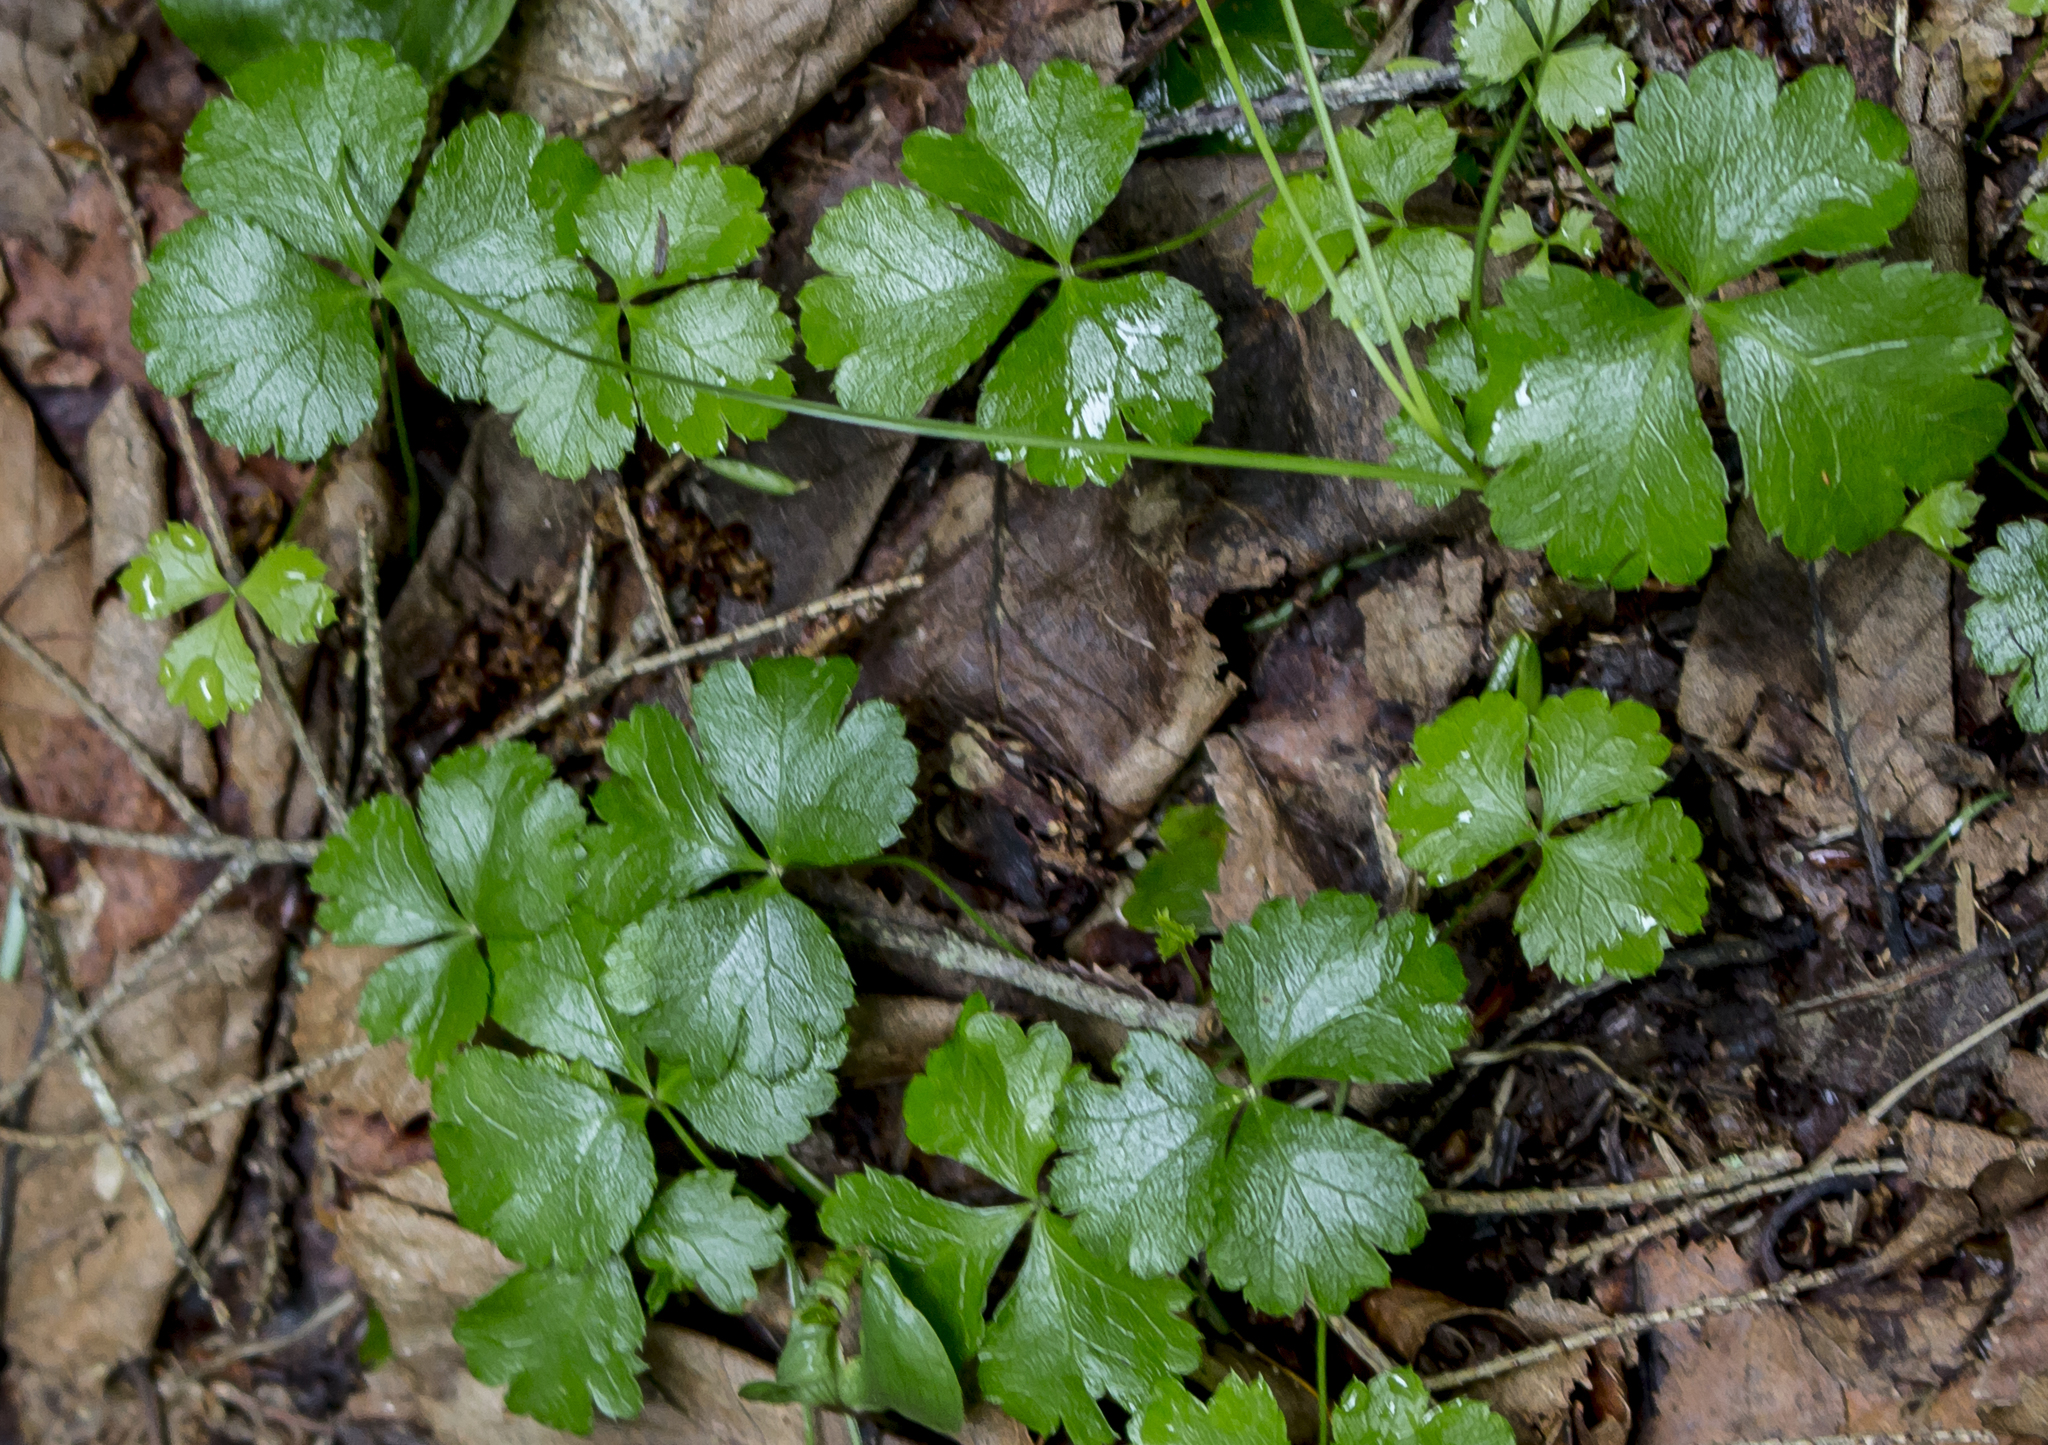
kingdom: Plantae
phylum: Tracheophyta
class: Magnoliopsida
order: Ranunculales
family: Ranunculaceae
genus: Coptis
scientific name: Coptis trifolia
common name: Canker-root
